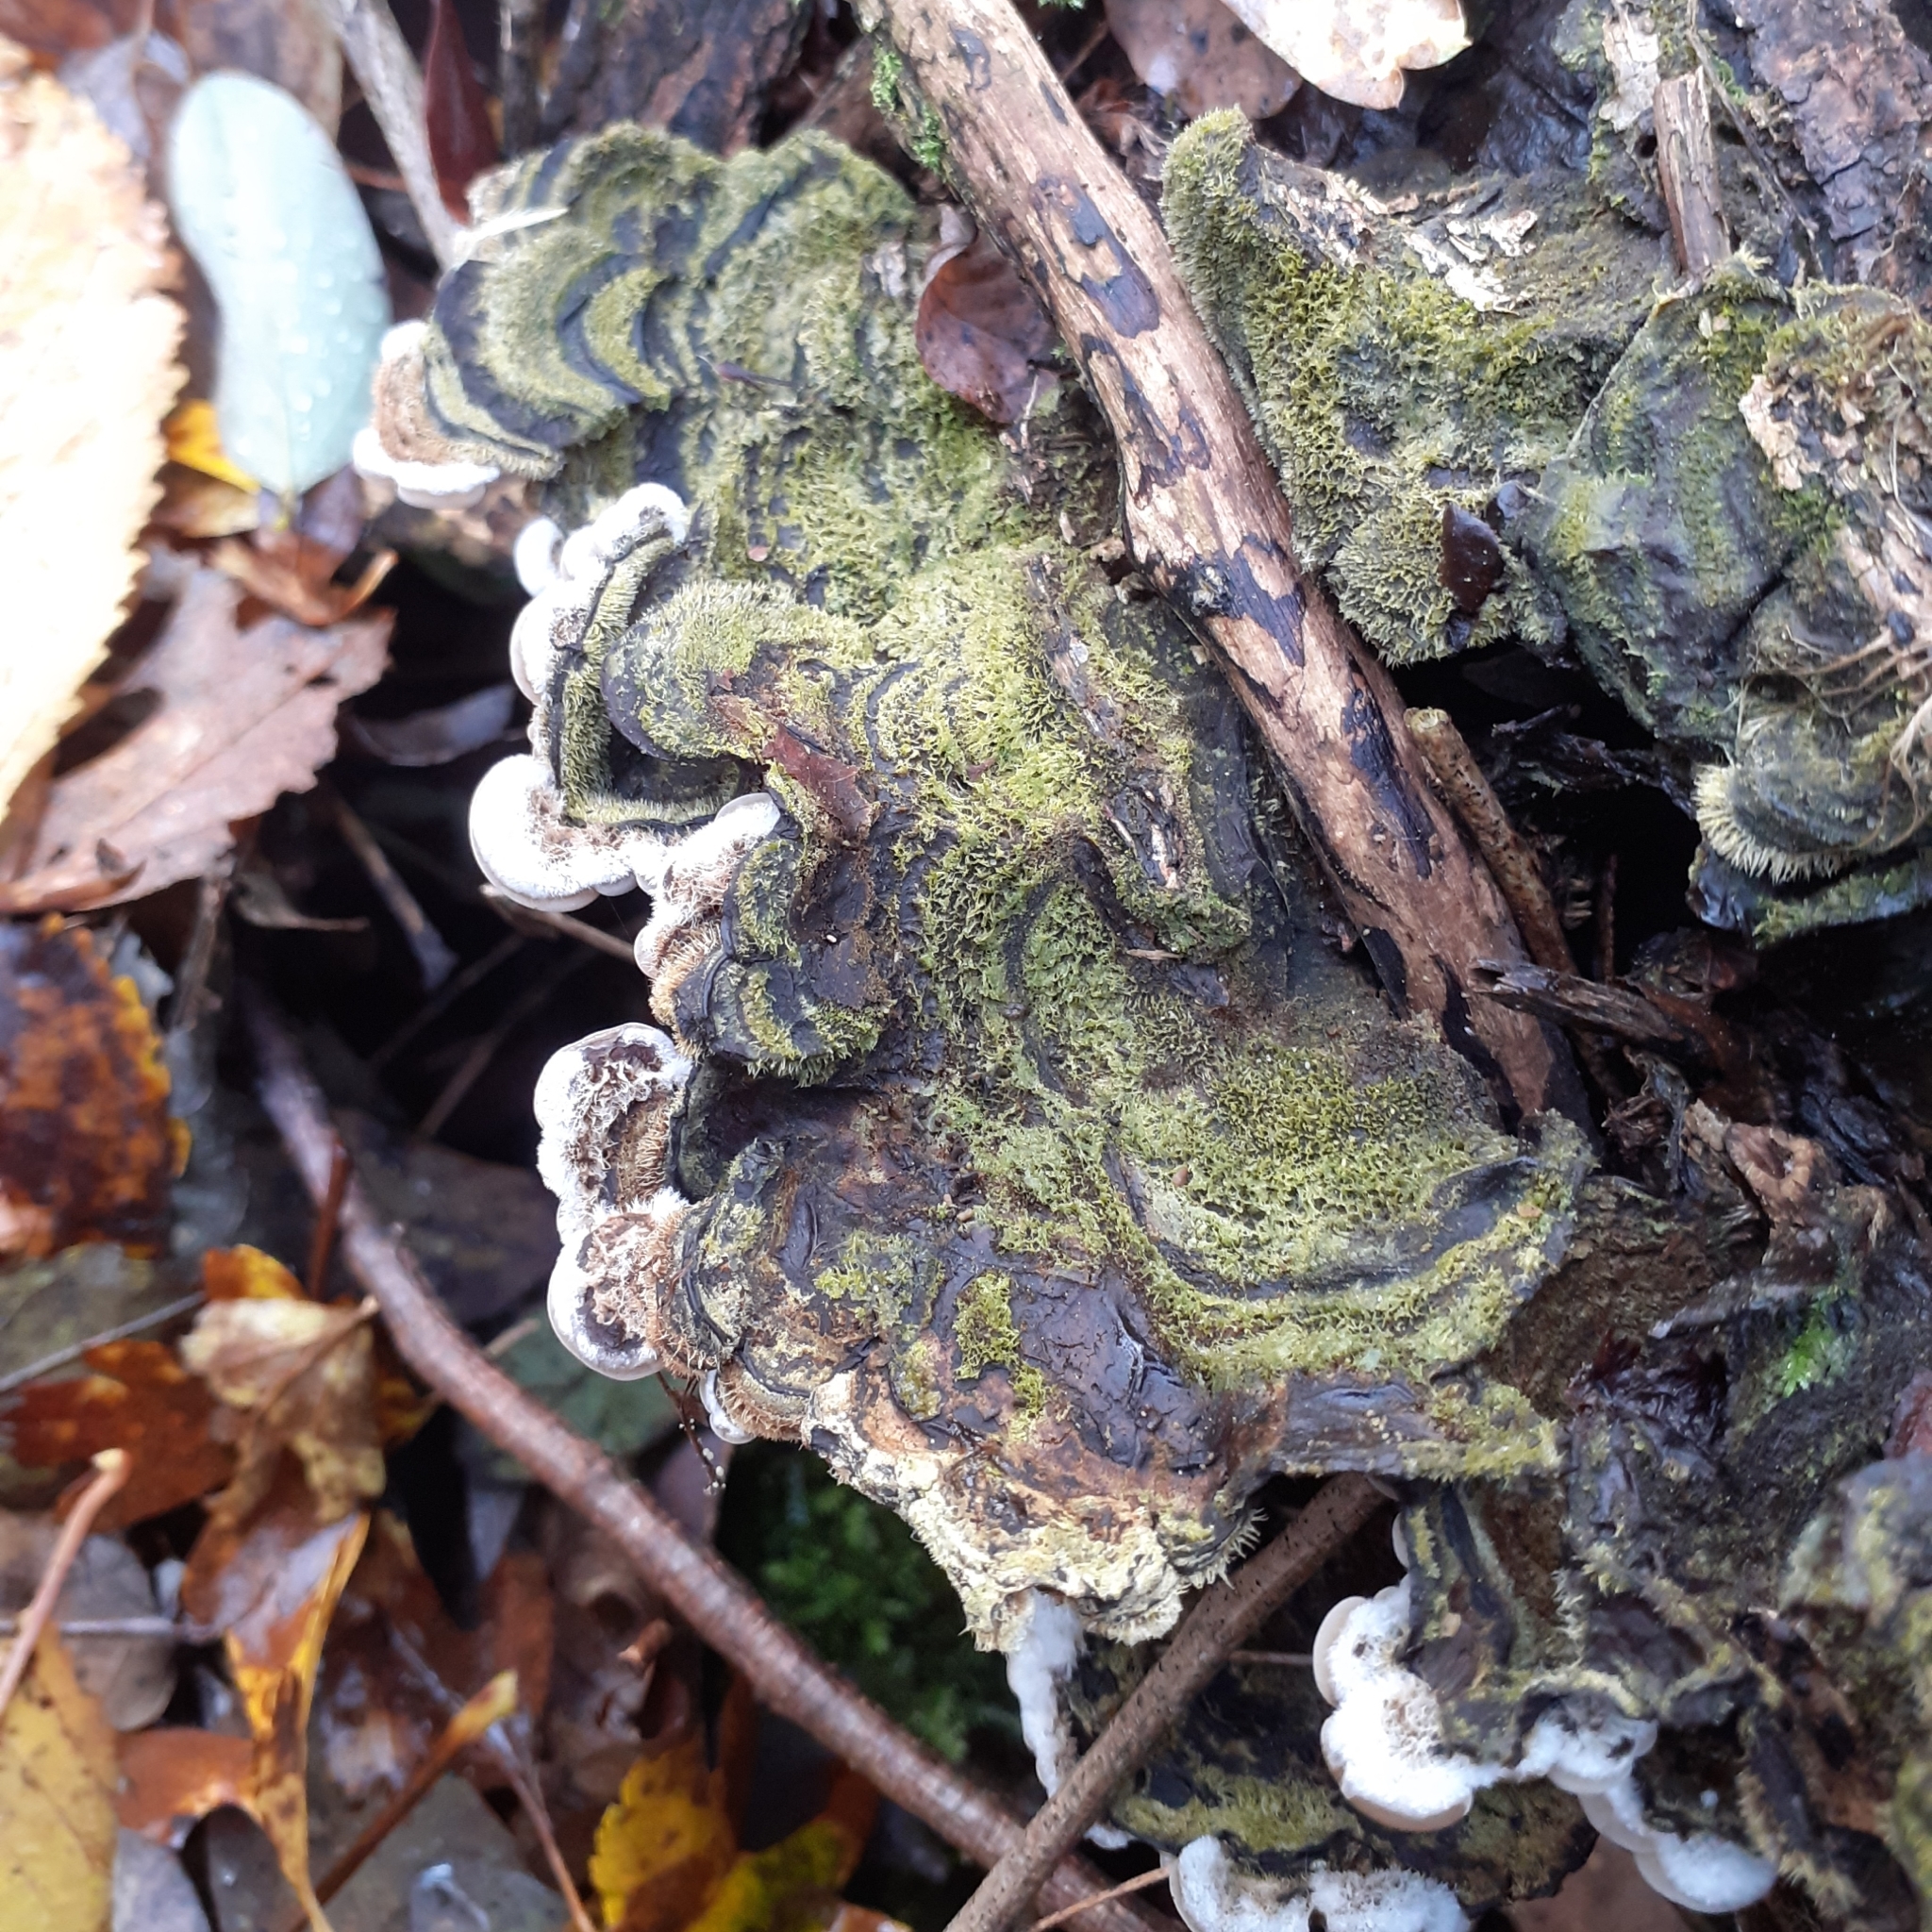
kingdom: Fungi
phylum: Basidiomycota
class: Agaricomycetes
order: Auriculariales
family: Auriculariaceae
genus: Auricularia
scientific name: Auricularia mesenterica
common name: Tripe fungus
